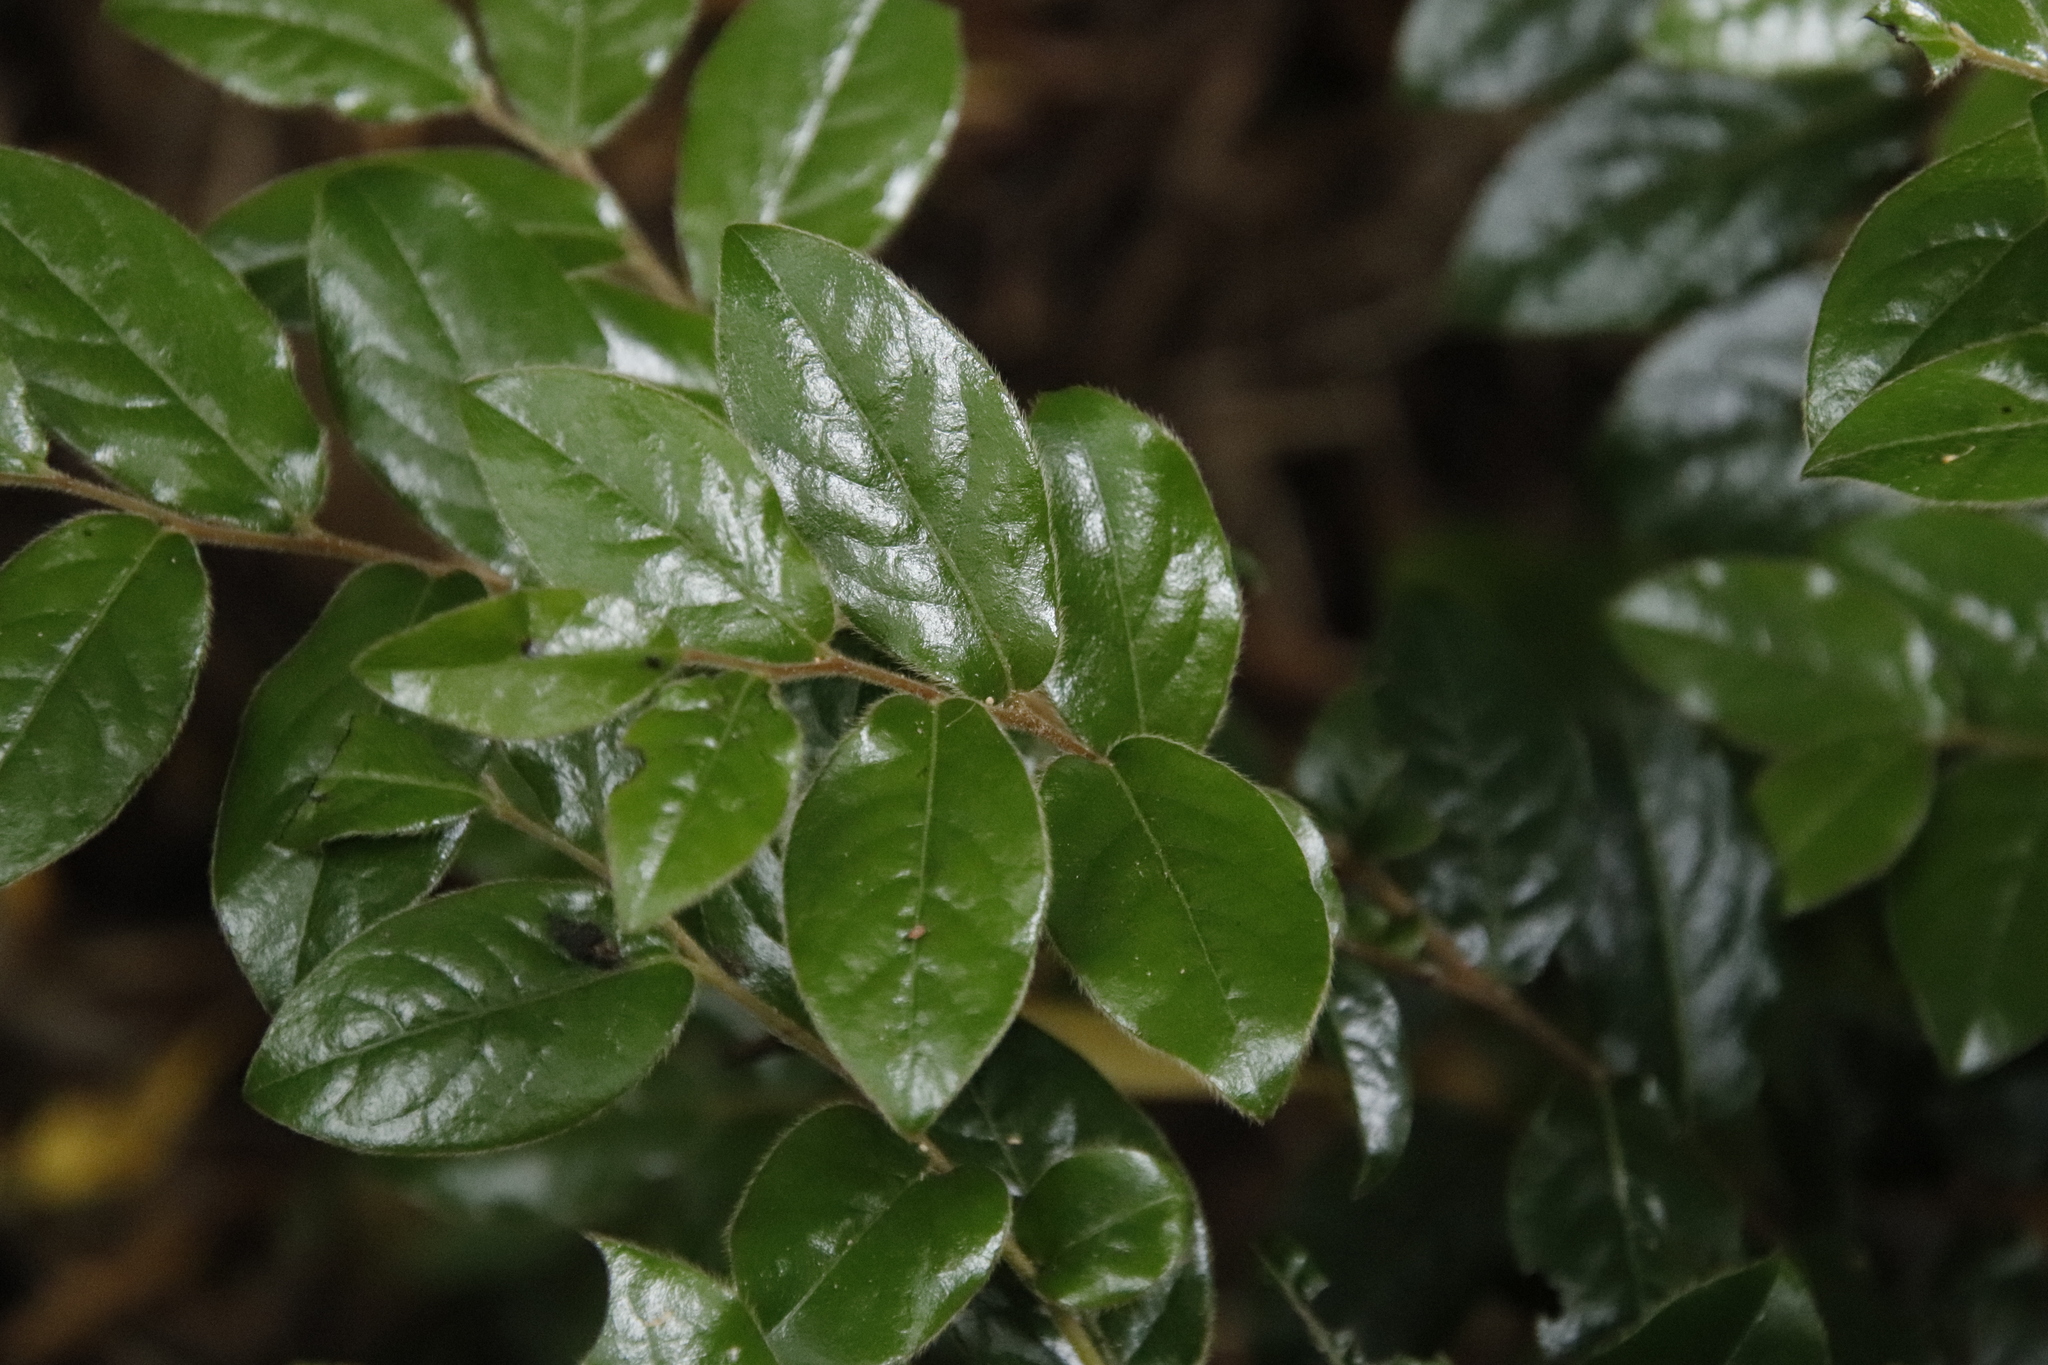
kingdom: Plantae
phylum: Tracheophyta
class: Magnoliopsida
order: Ericales
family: Ebenaceae
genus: Diospyros
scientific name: Diospyros whyteana
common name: Bladder-nut
